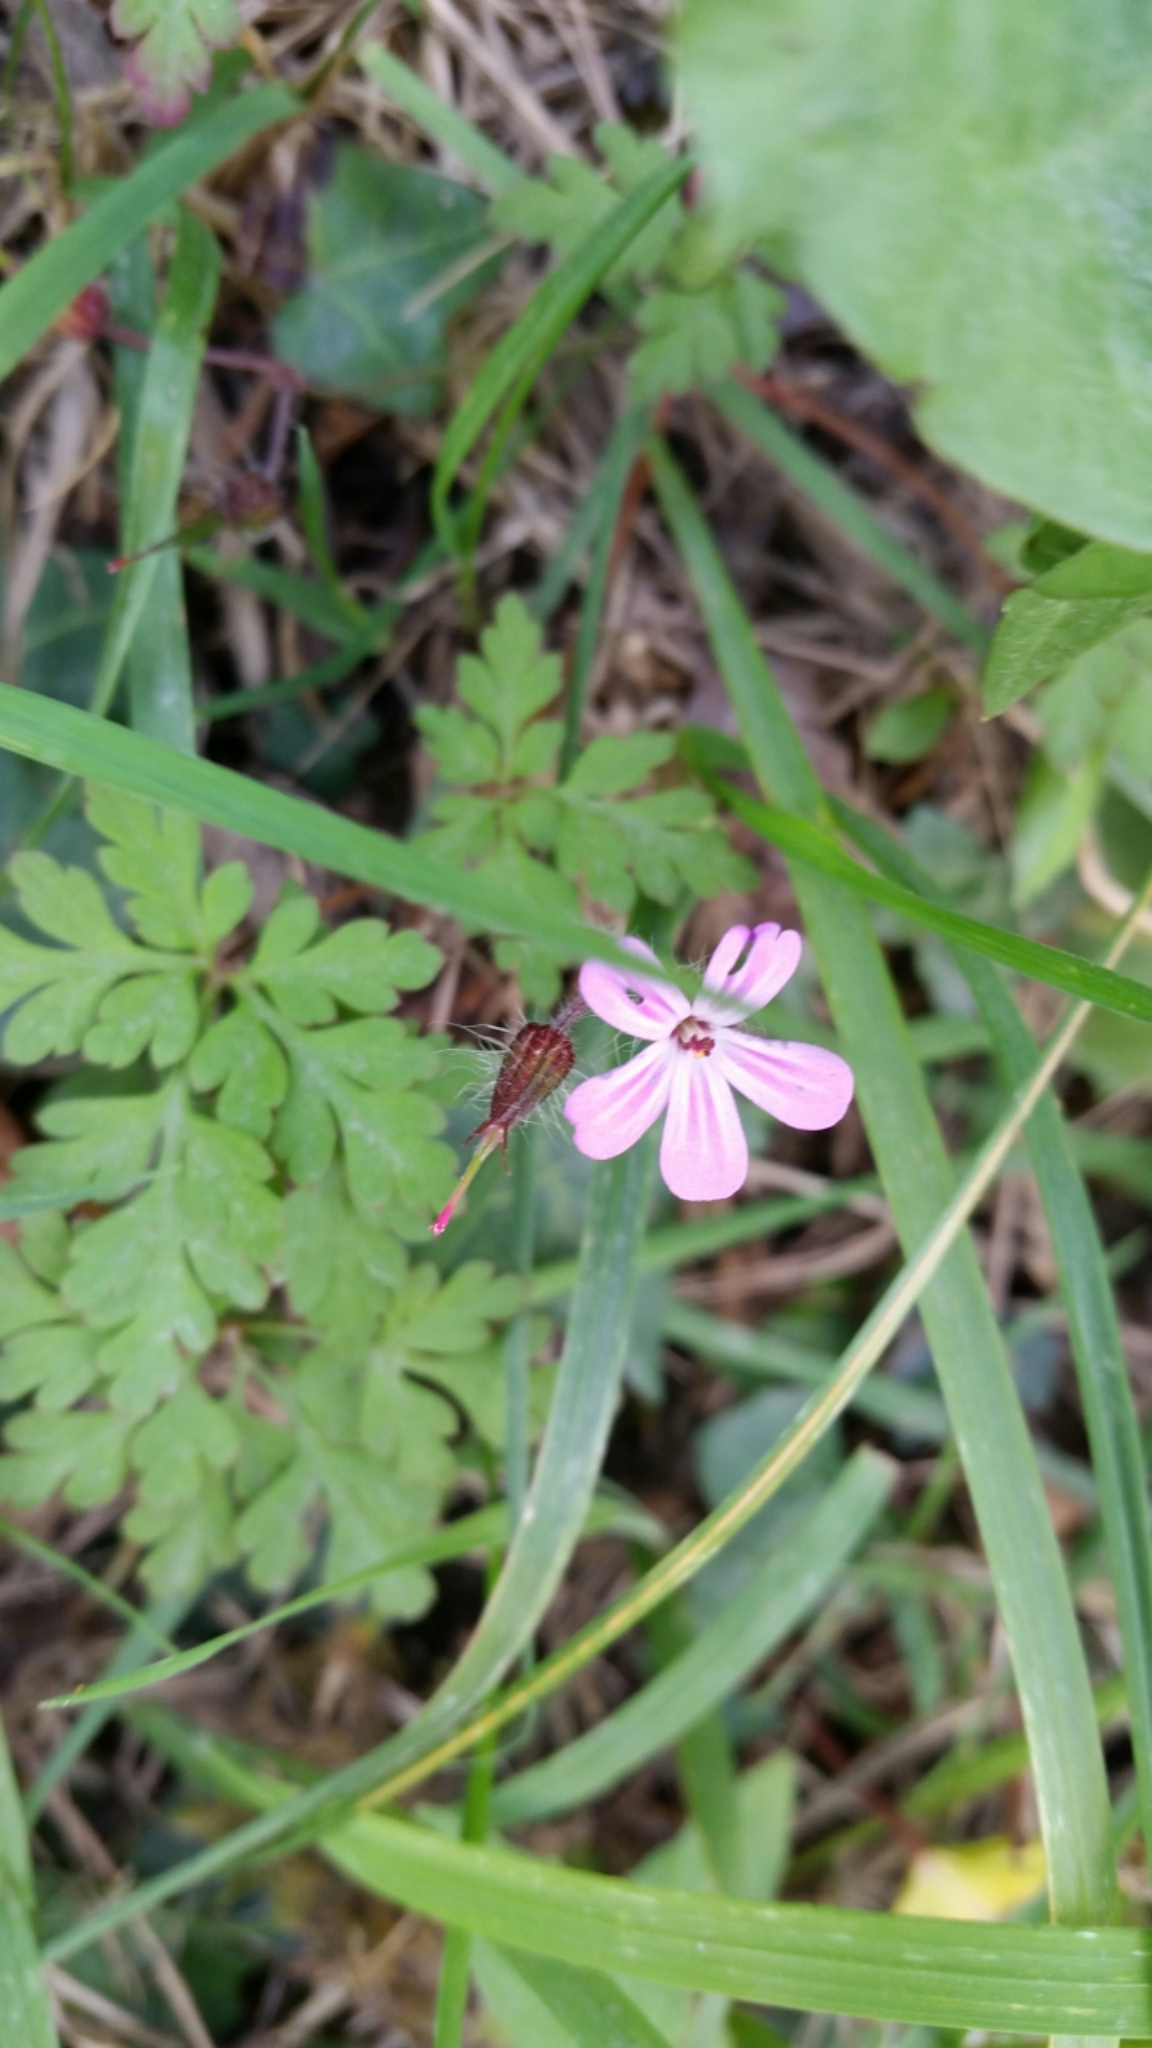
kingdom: Plantae
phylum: Tracheophyta
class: Magnoliopsida
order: Geraniales
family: Geraniaceae
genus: Geranium
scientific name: Geranium robertianum
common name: Herb-robert
